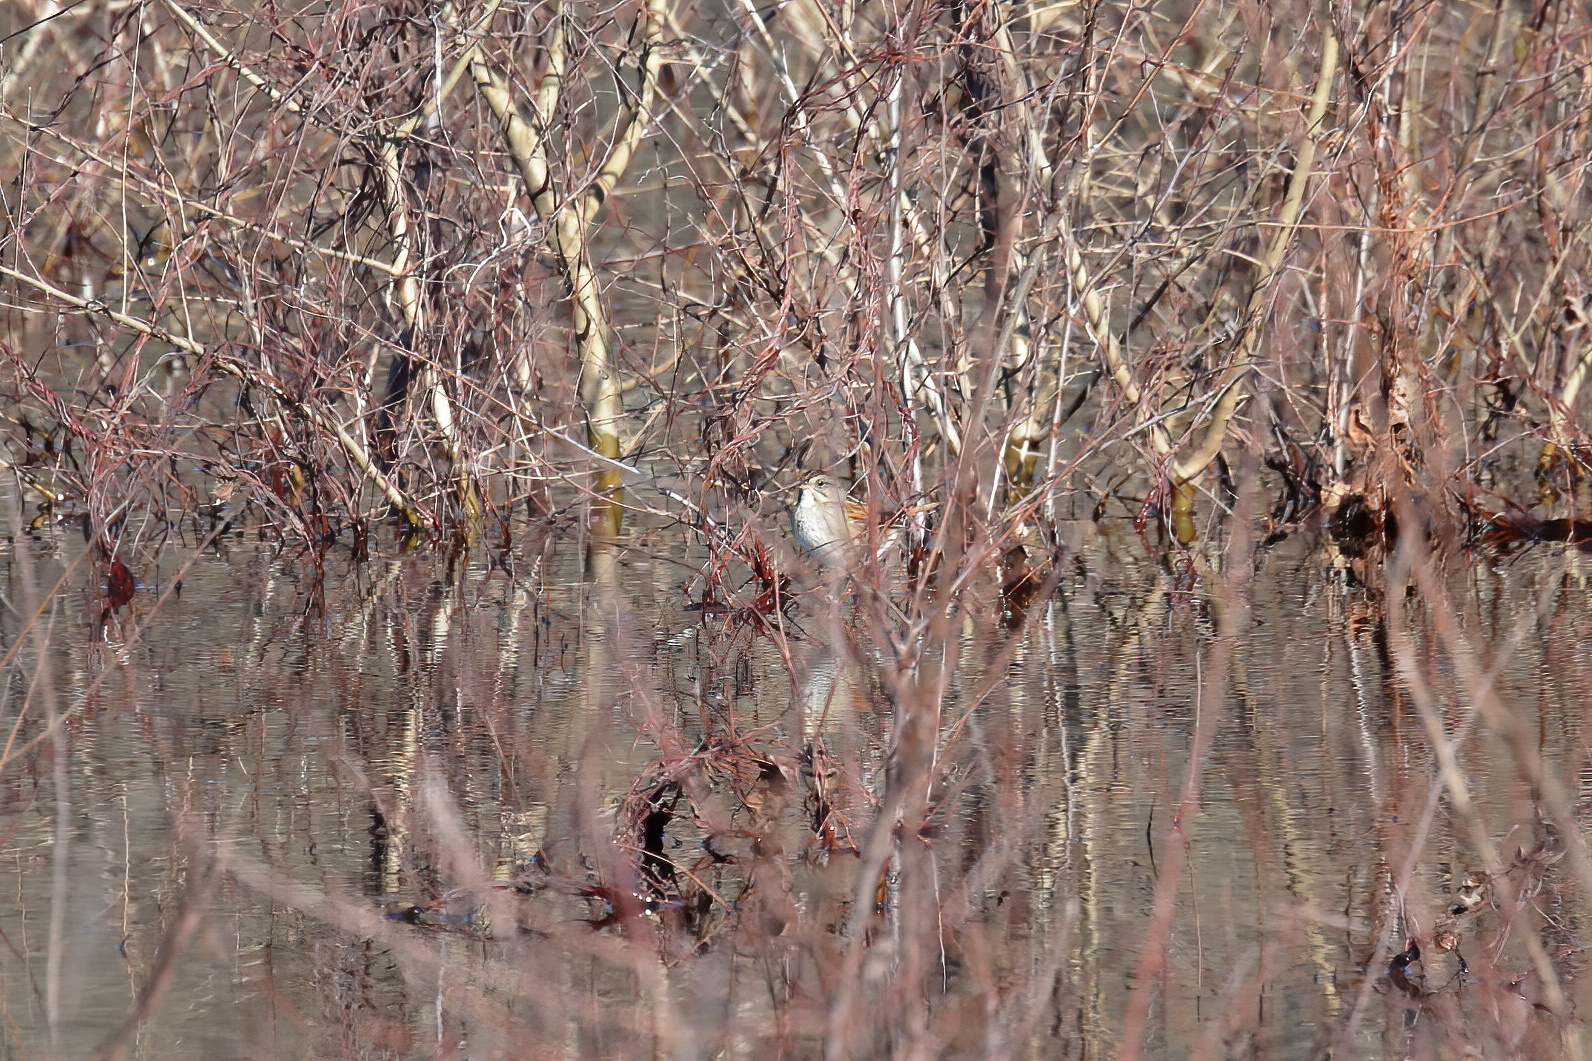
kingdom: Animalia
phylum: Chordata
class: Aves
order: Passeriformes
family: Passerellidae
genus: Melospiza
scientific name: Melospiza georgiana
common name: Swamp sparrow
